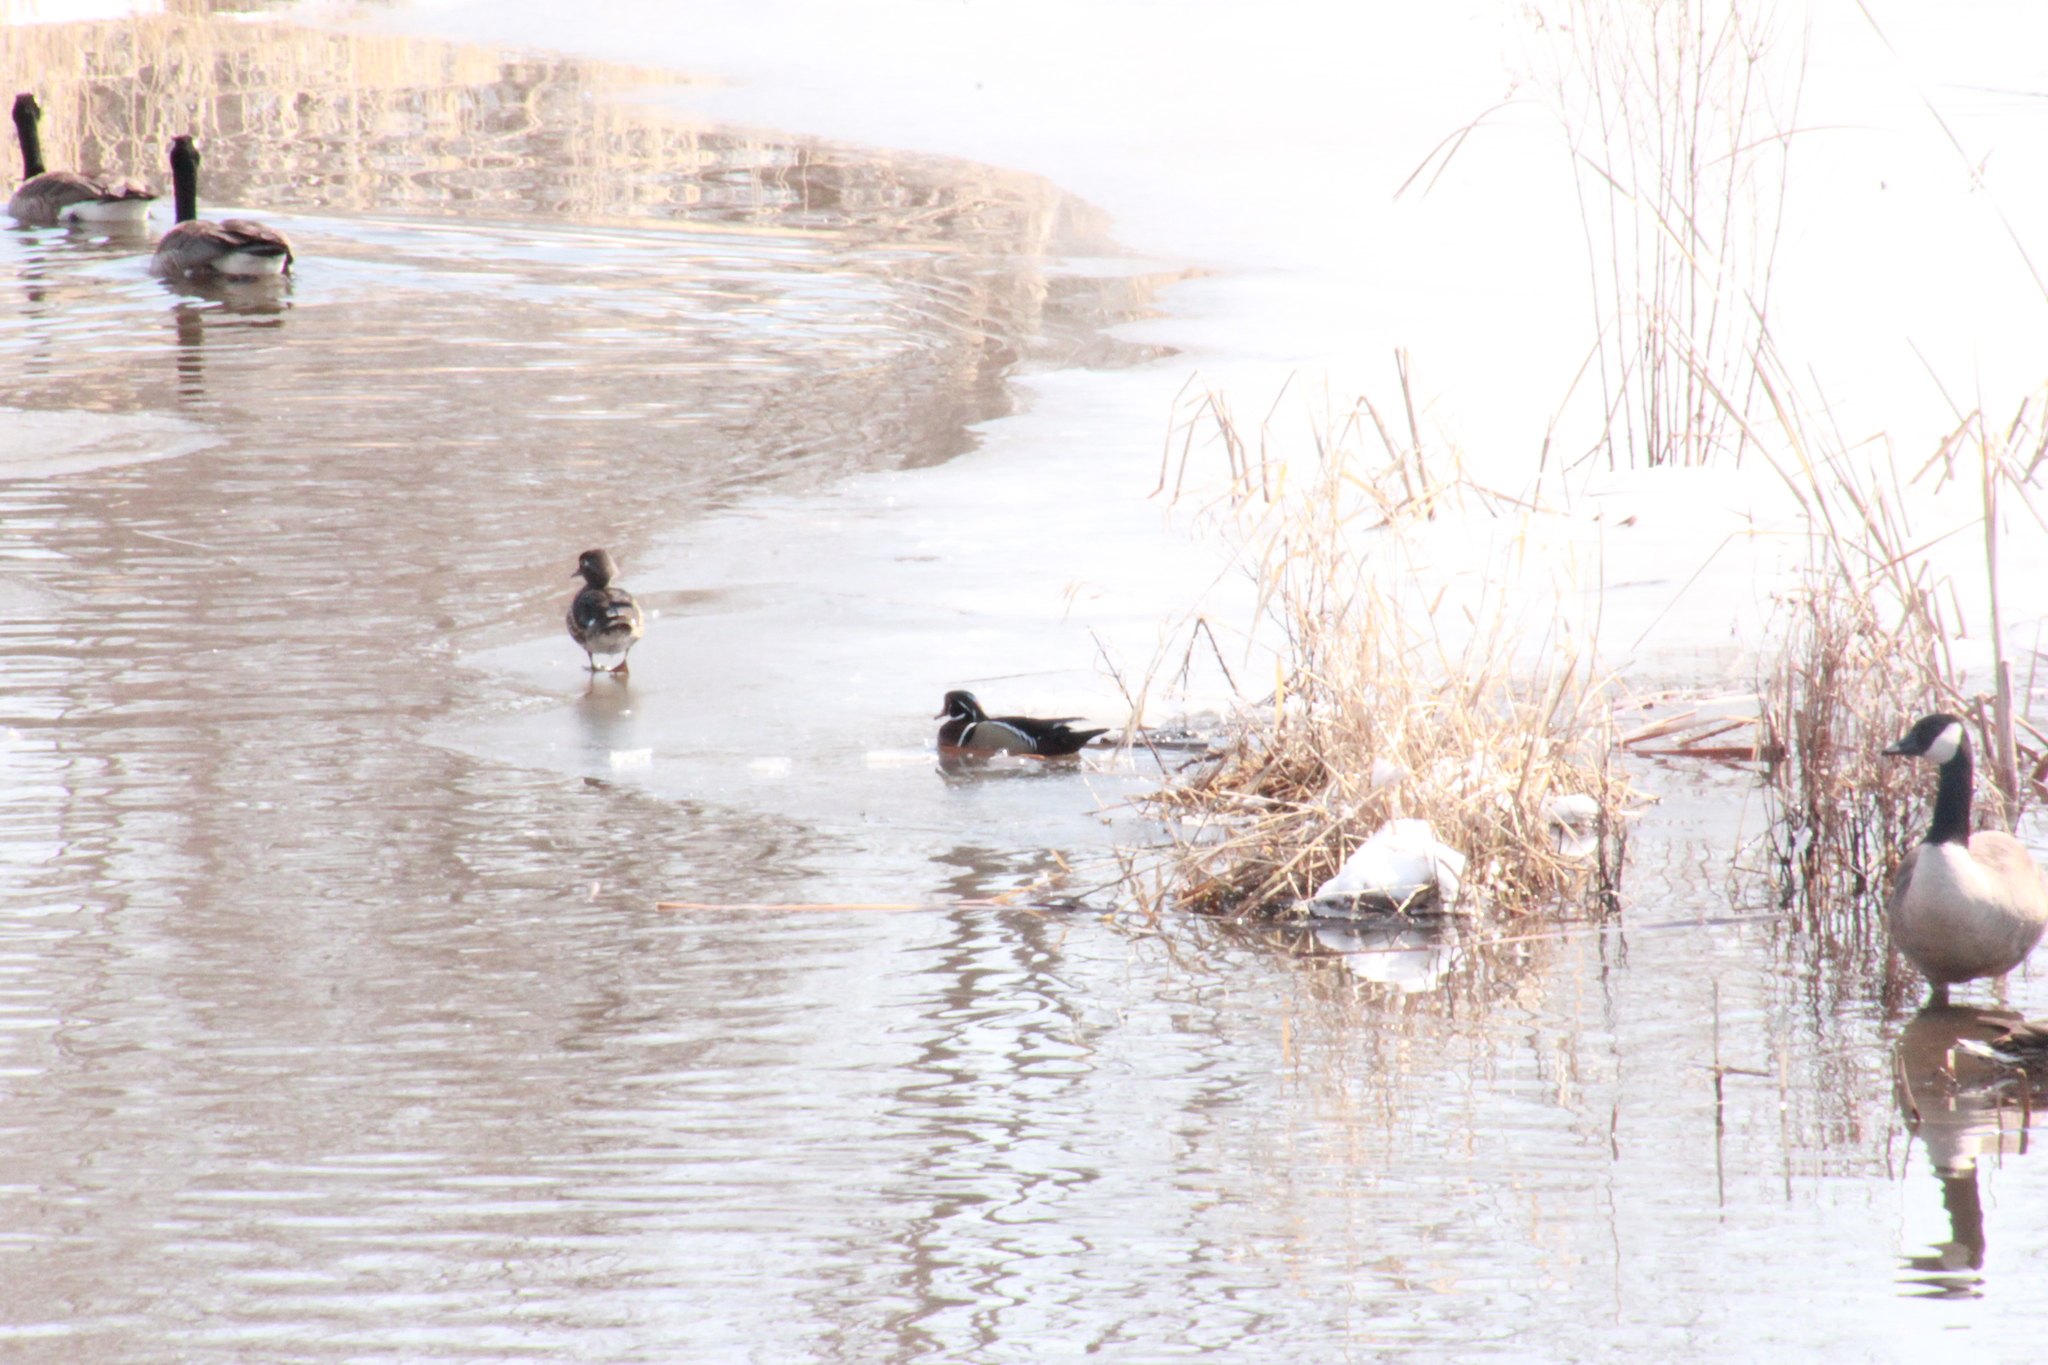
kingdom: Animalia
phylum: Chordata
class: Aves
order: Anseriformes
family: Anatidae
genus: Aix
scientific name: Aix sponsa
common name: Wood duck
